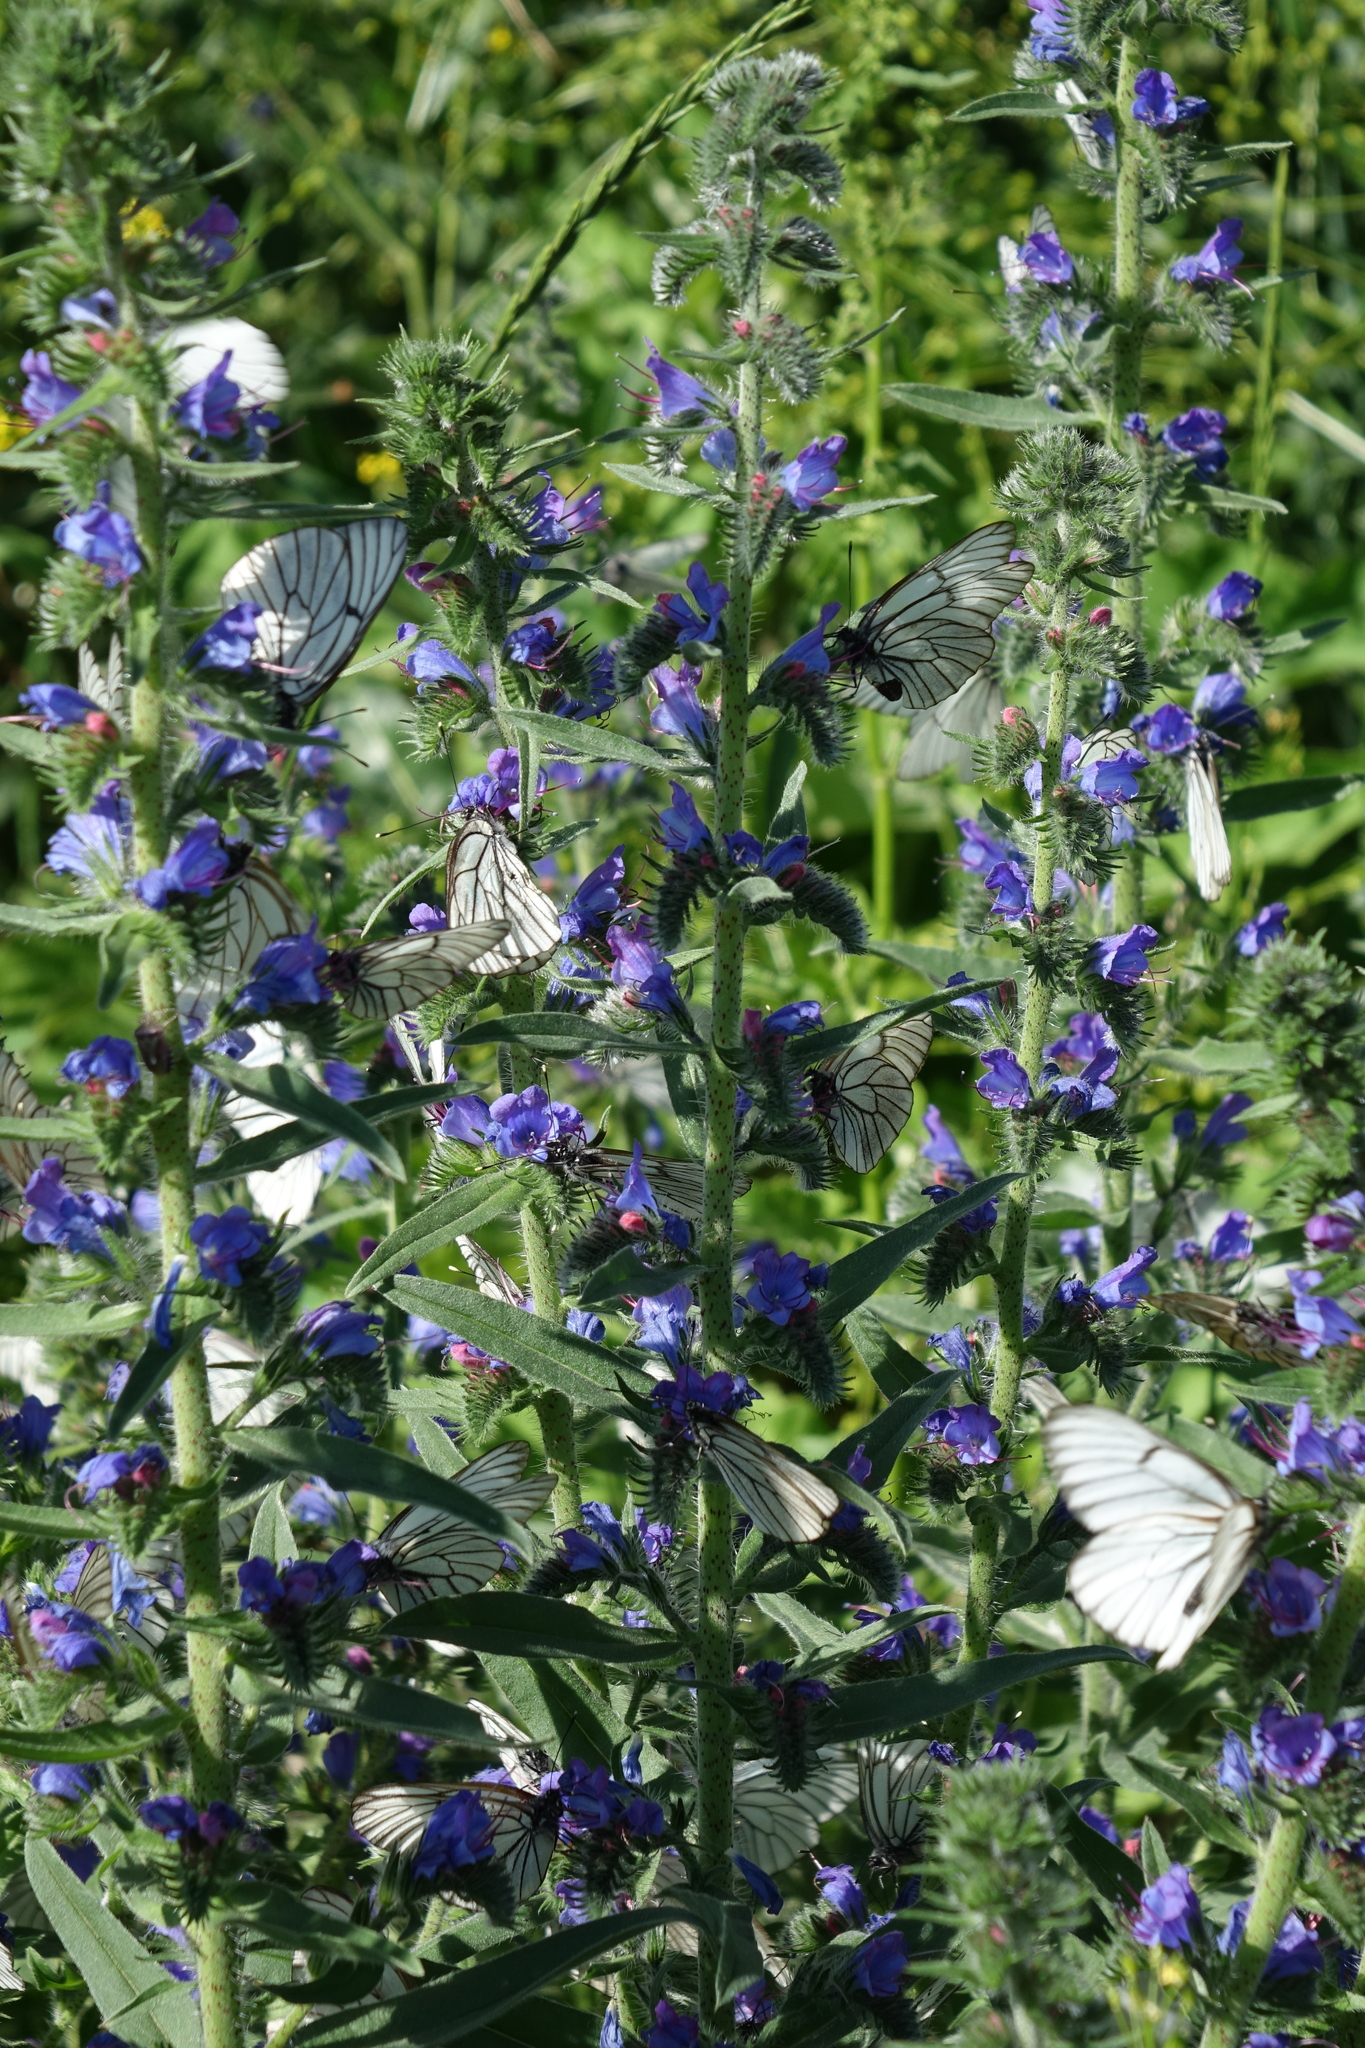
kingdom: Animalia
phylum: Arthropoda
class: Insecta
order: Lepidoptera
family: Pieridae
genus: Aporia
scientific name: Aporia crataegi
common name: Black-veined white
